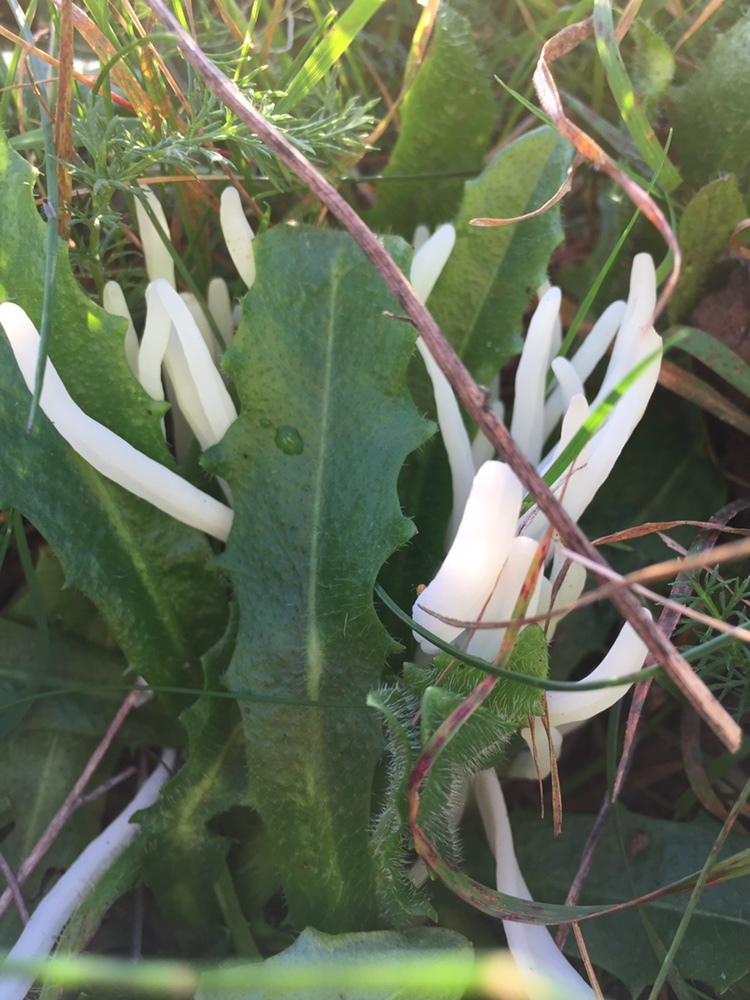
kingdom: Fungi
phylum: Basidiomycota
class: Agaricomycetes
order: Agaricales
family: Clavariaceae
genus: Clavaria
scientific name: Clavaria fragilis
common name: White spindles
